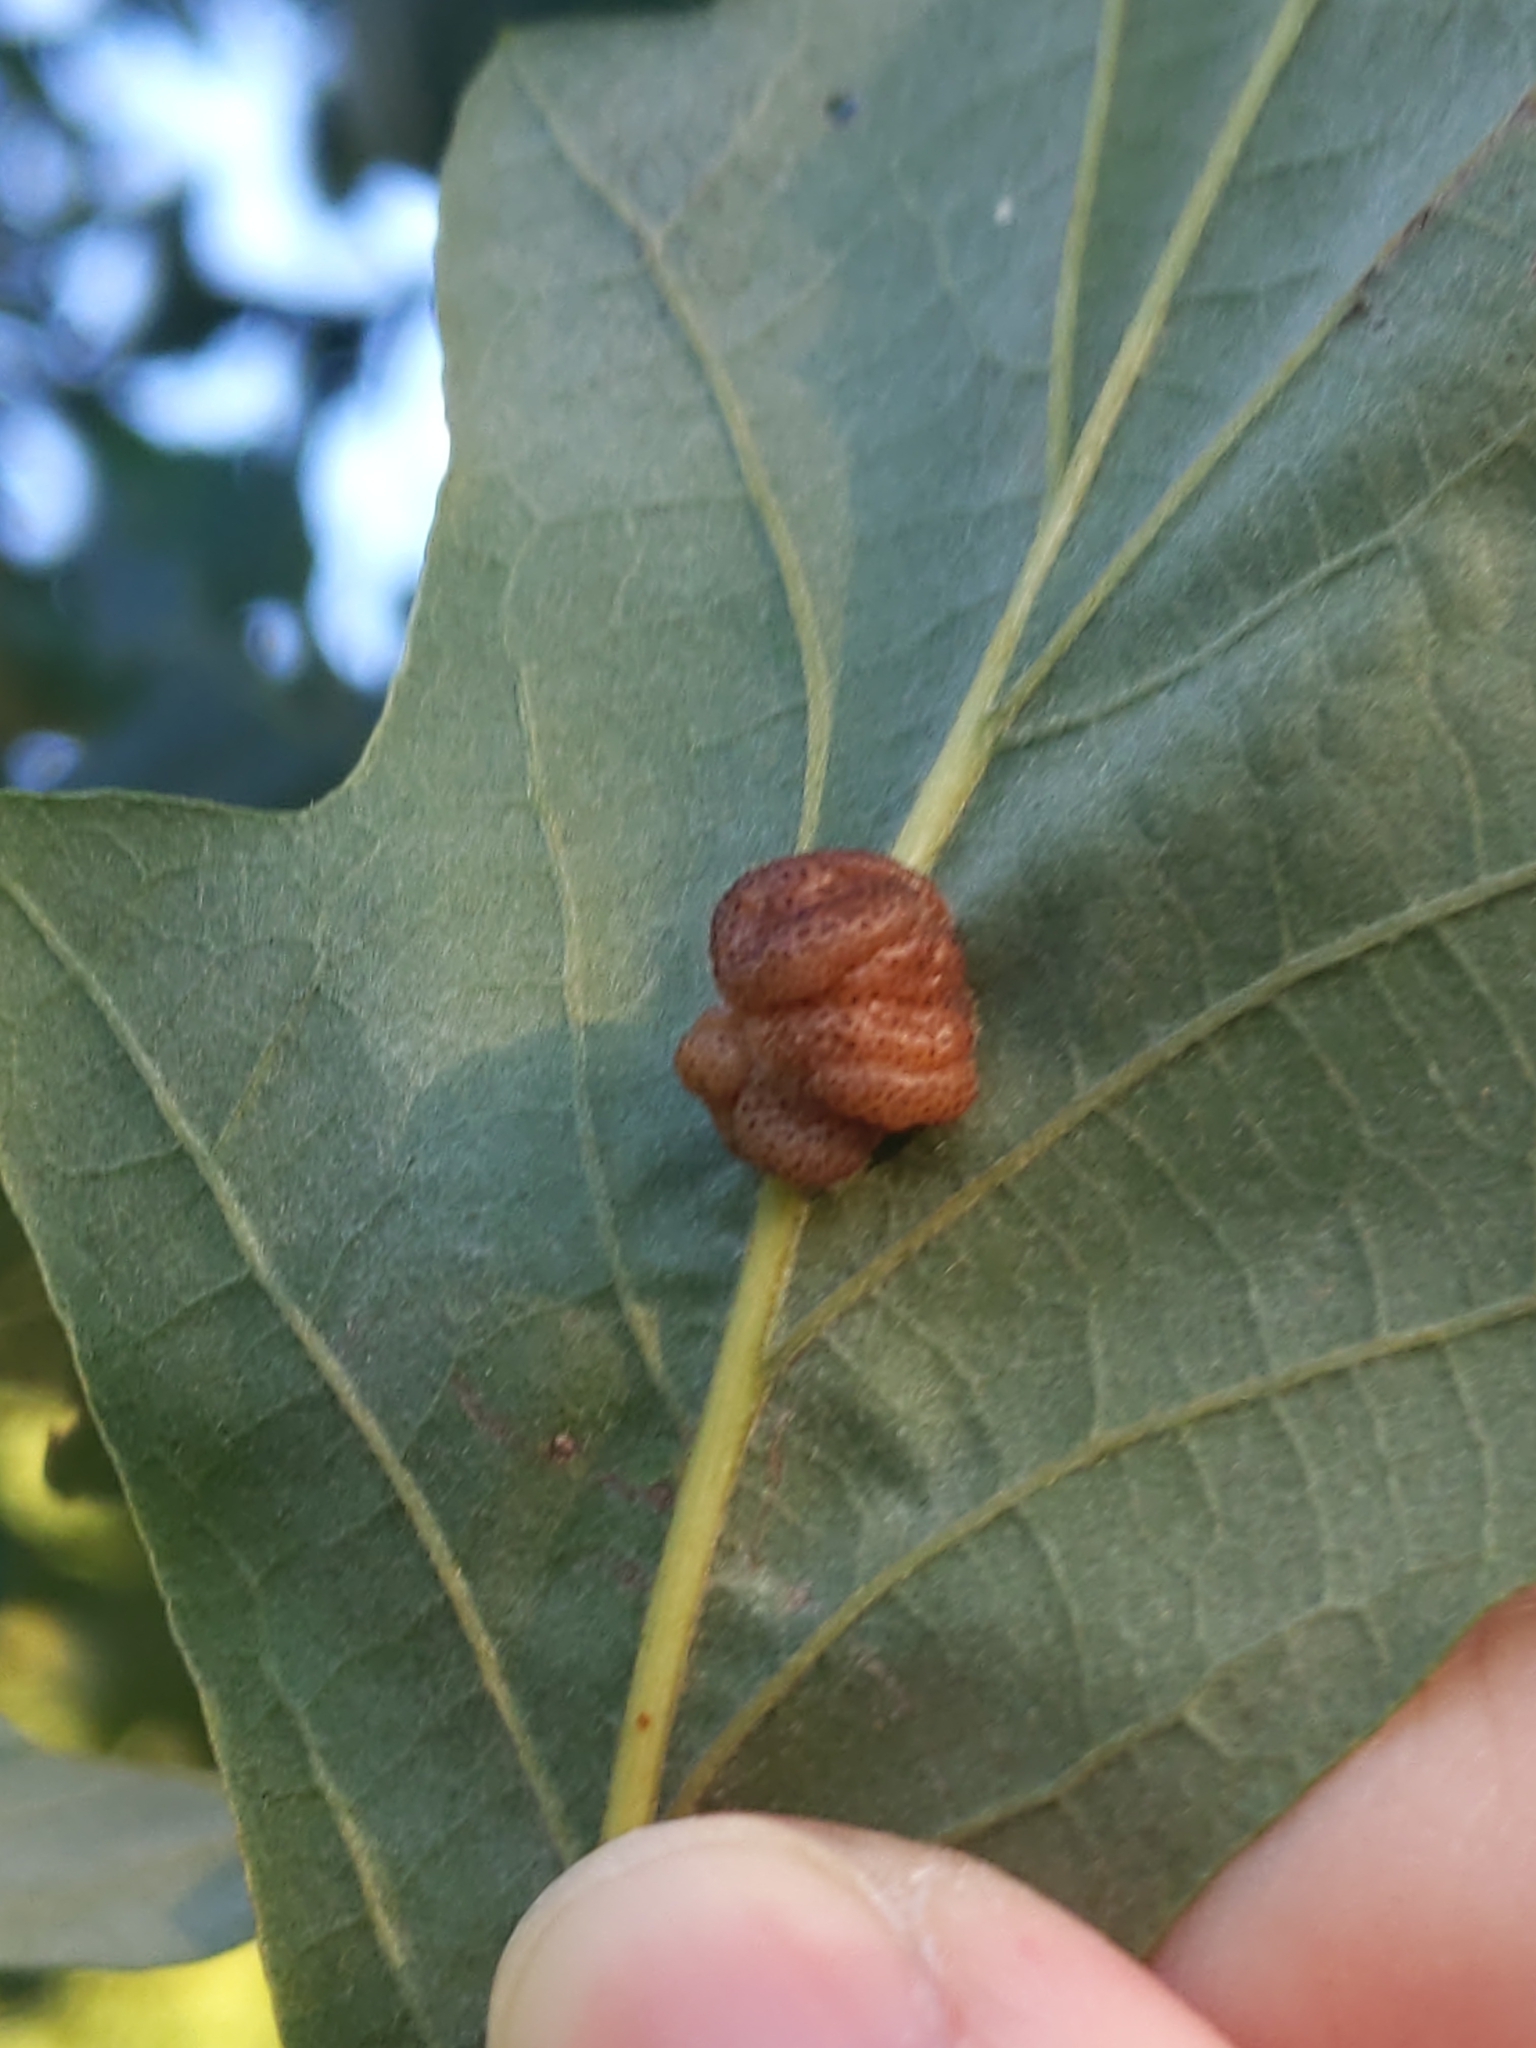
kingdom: Animalia
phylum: Arthropoda
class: Insecta
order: Hymenoptera
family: Cynipidae
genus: Andricus
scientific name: Andricus
